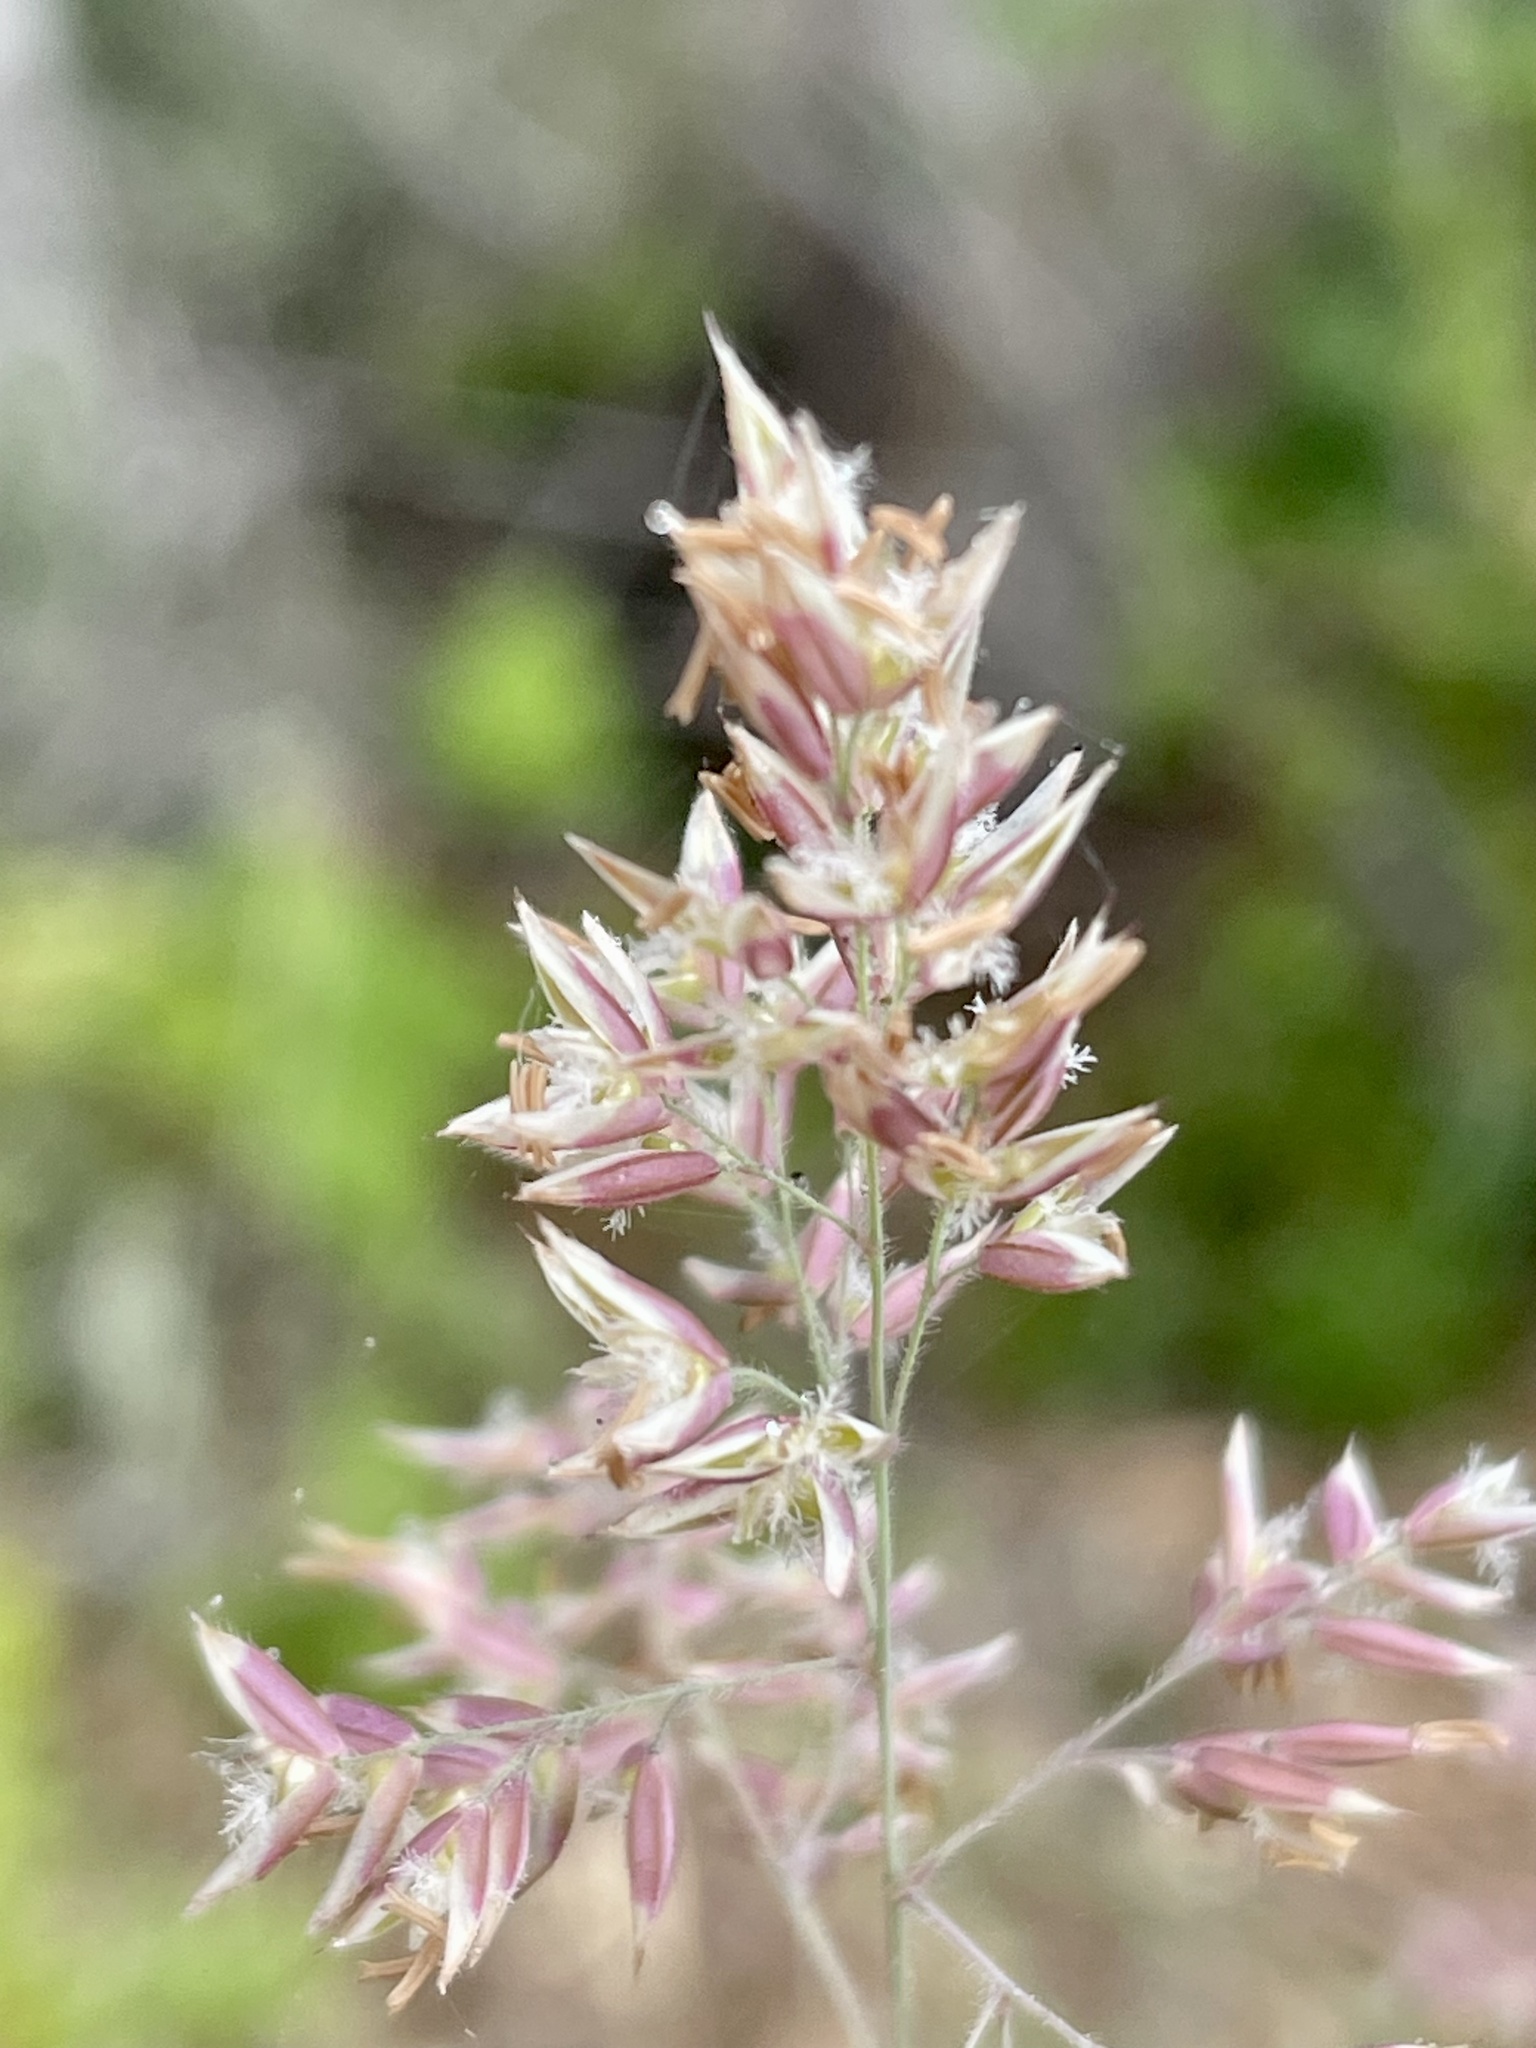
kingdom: Plantae
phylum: Tracheophyta
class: Liliopsida
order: Poales
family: Poaceae
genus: Holcus
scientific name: Holcus lanatus
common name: Yorkshire-fog
